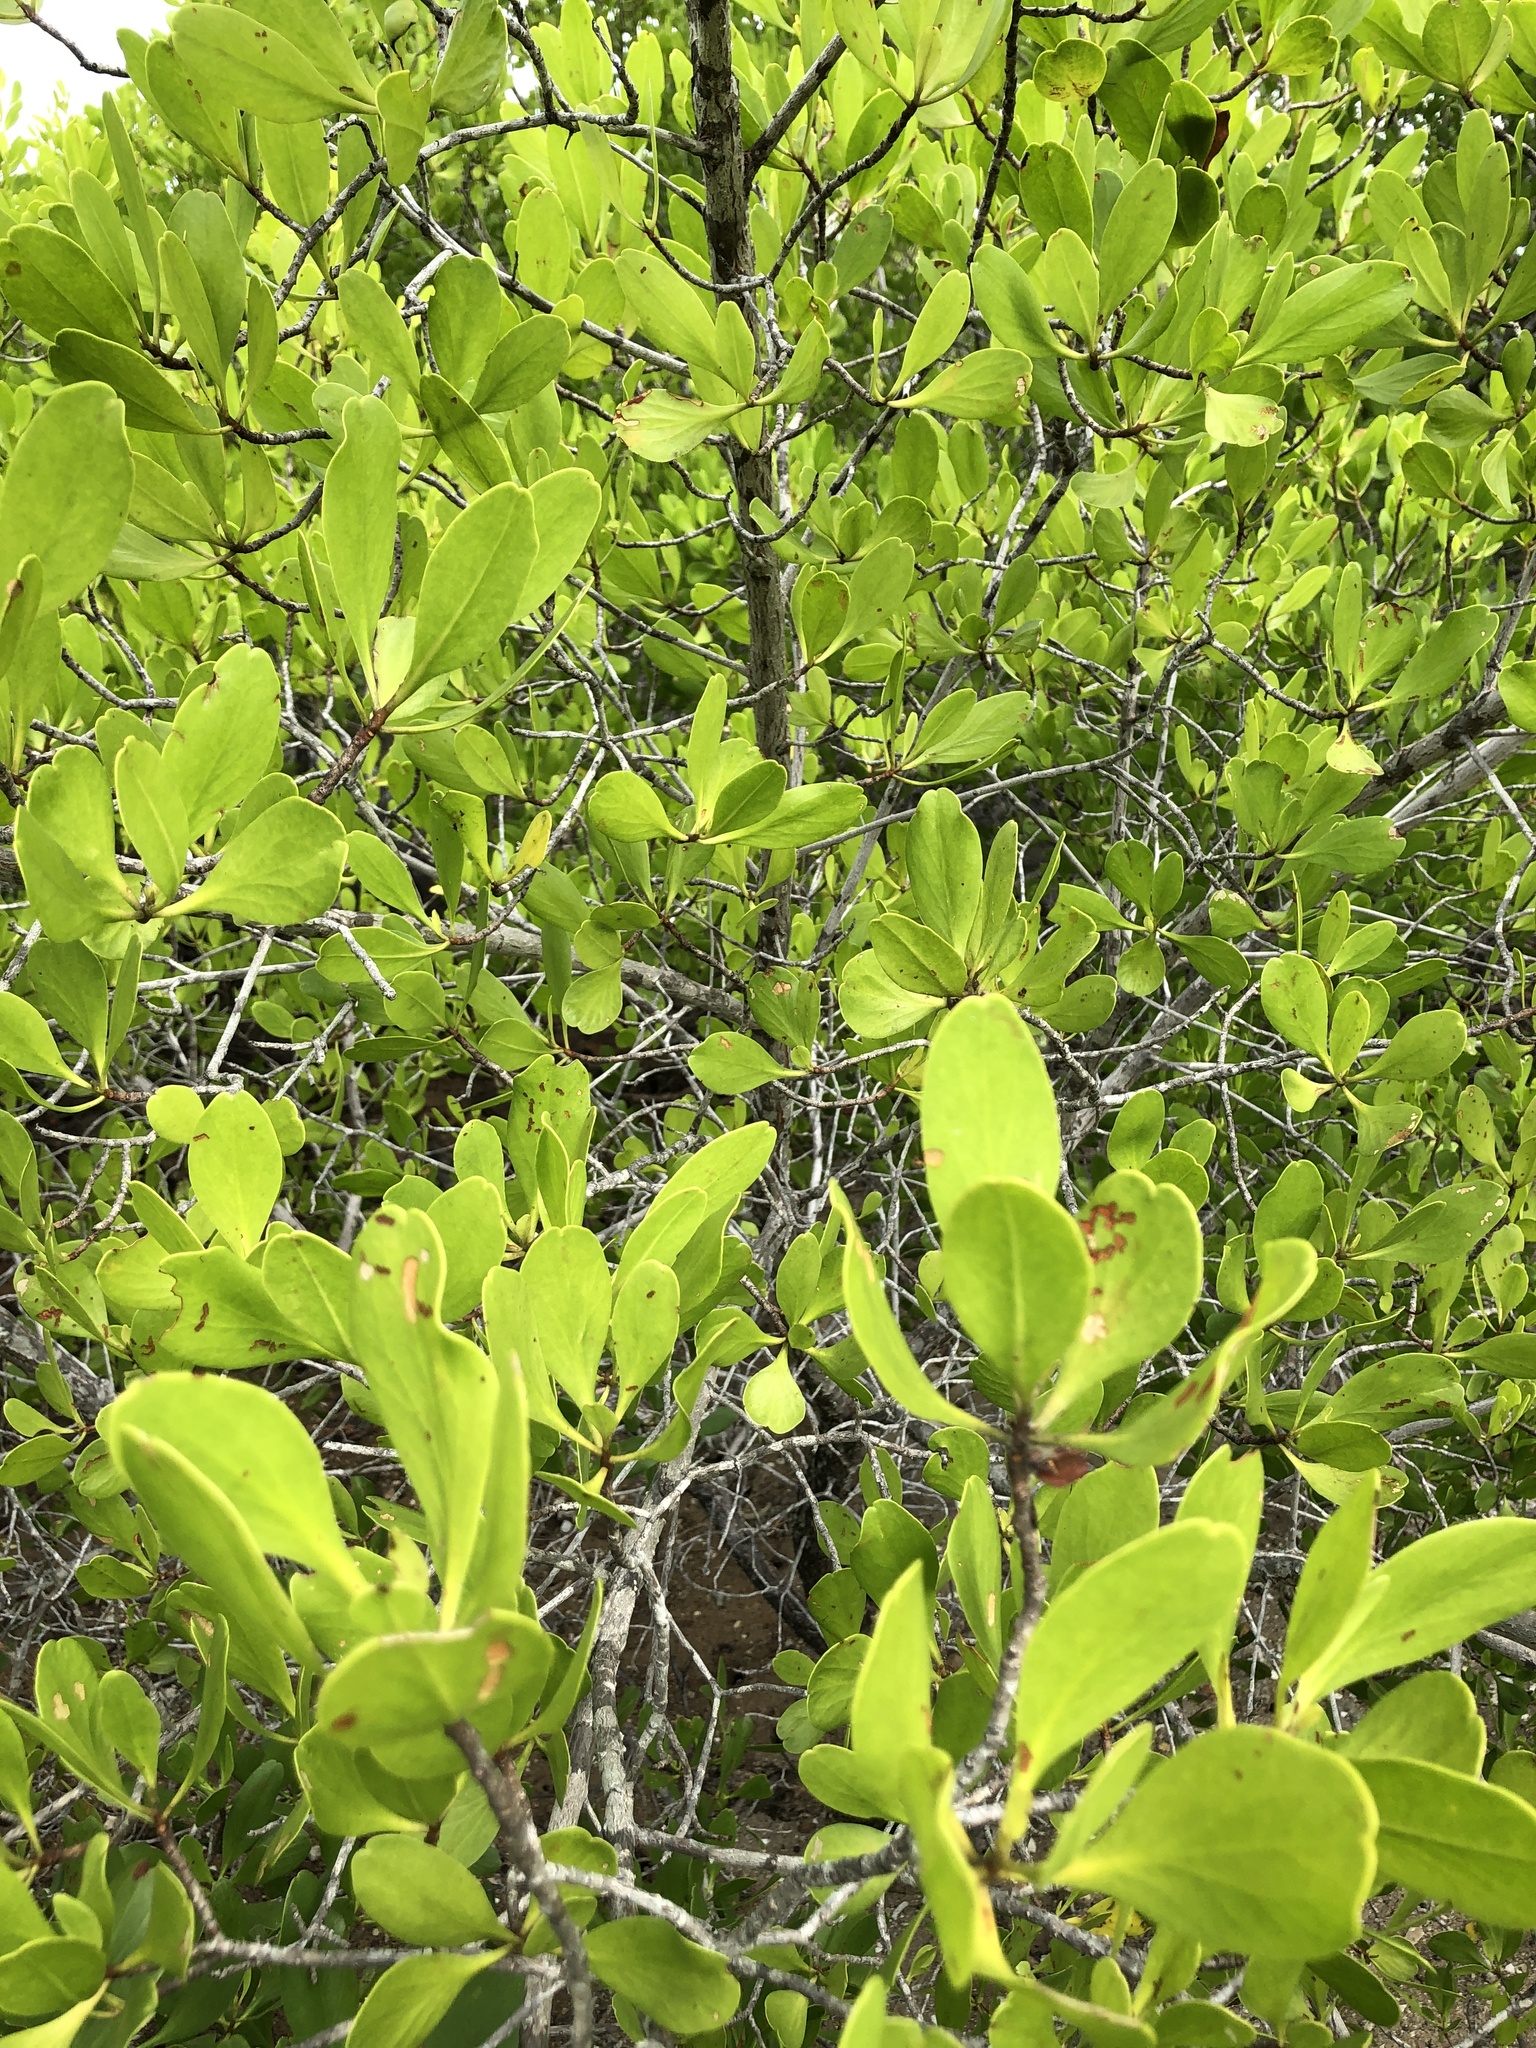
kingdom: Plantae
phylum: Tracheophyta
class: Magnoliopsida
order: Myrtales
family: Combretaceae
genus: Lumnitzera
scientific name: Lumnitzera racemosa
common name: White-flowered black mangrove
